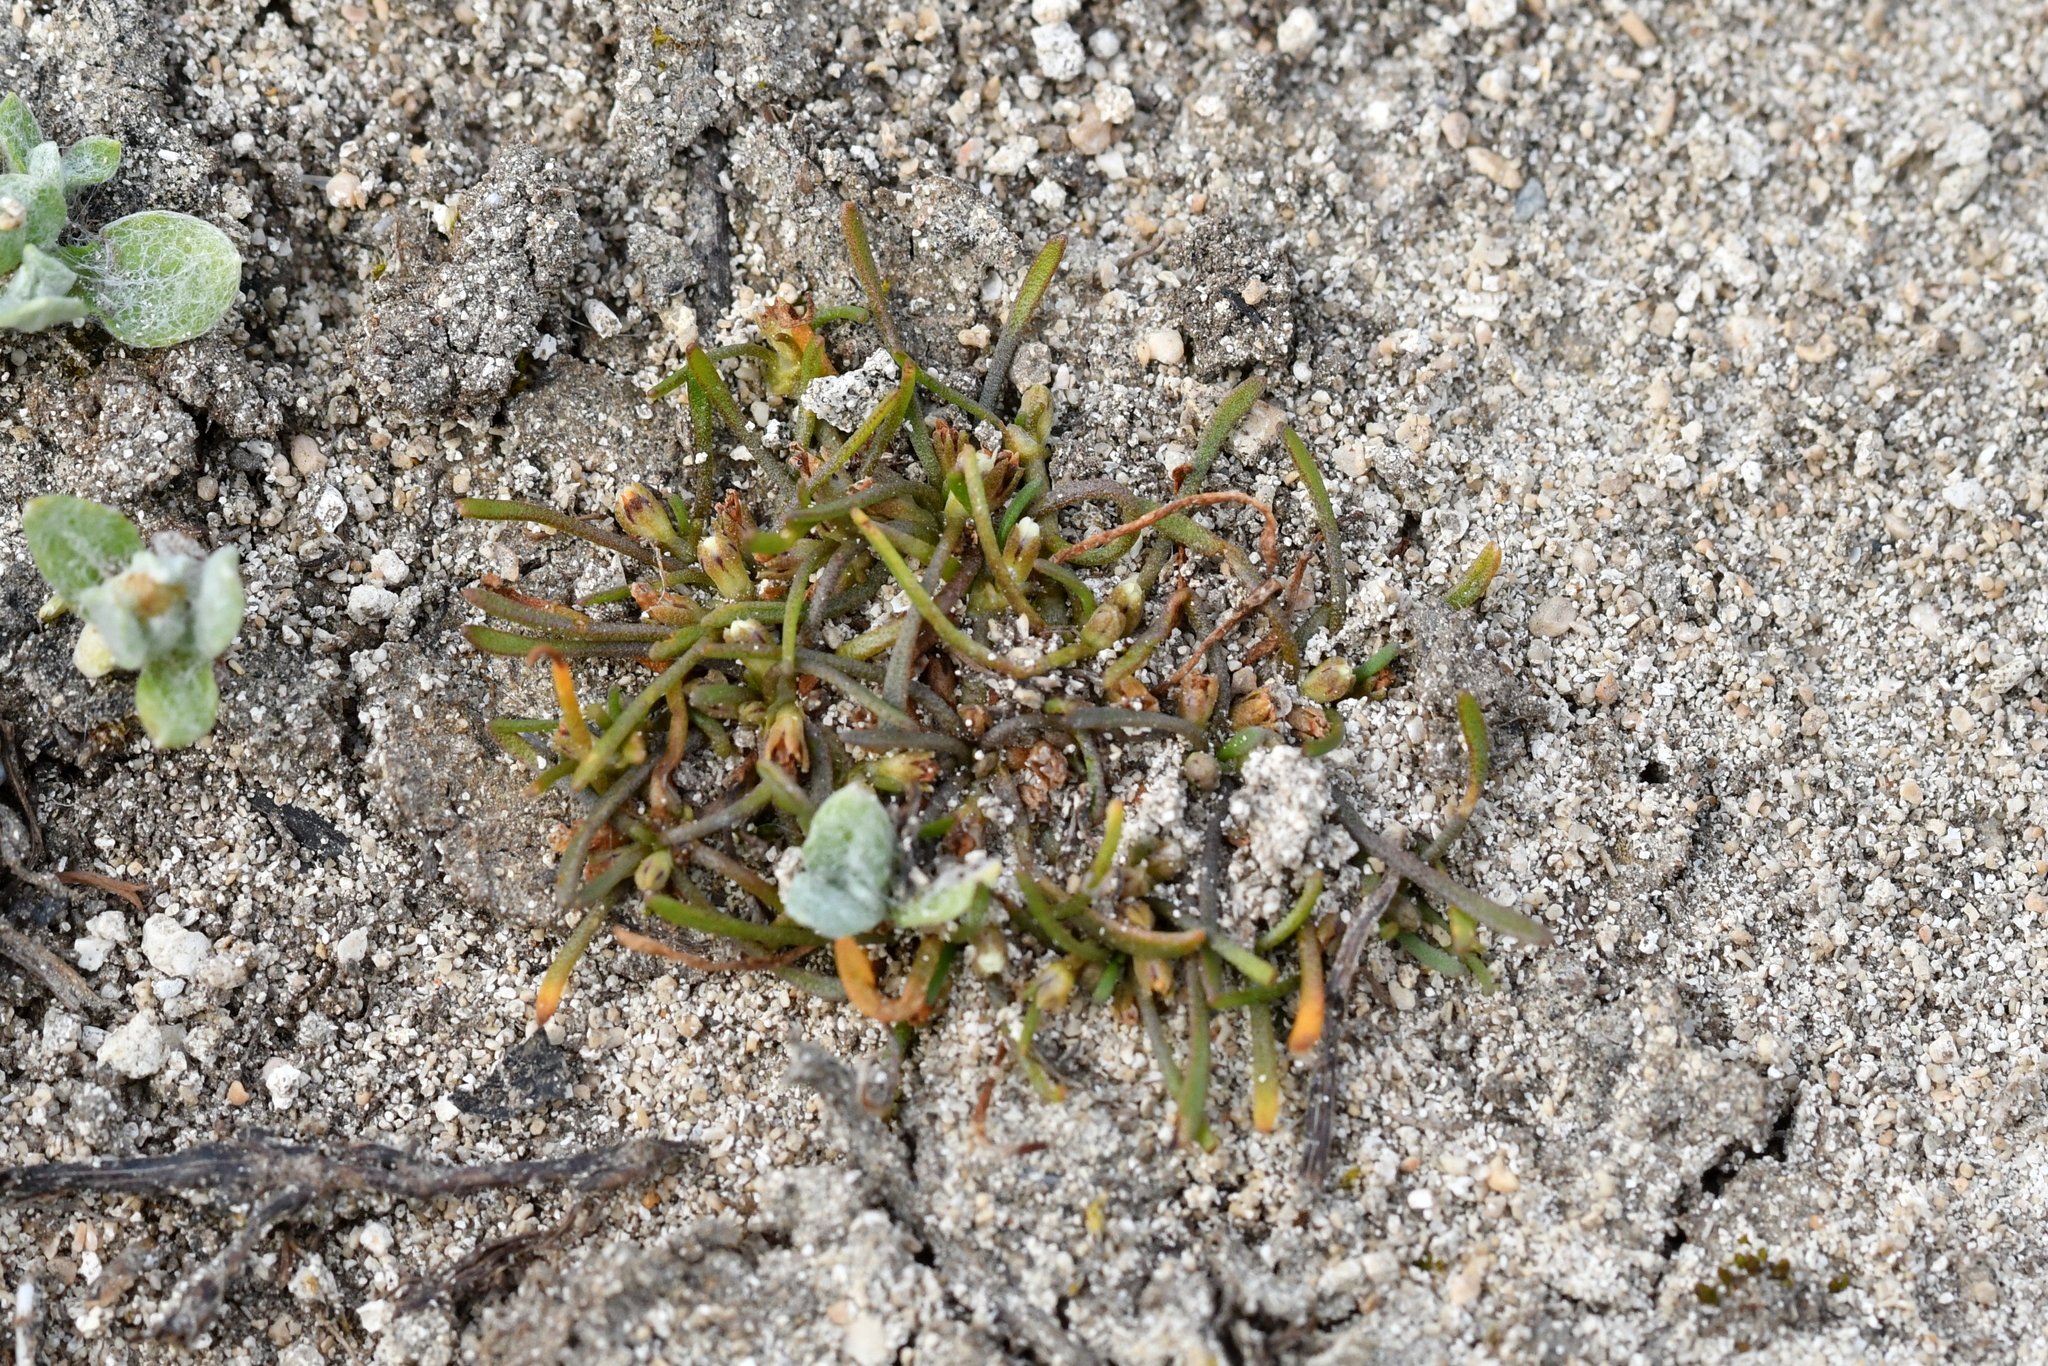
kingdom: Plantae
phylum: Tracheophyta
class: Magnoliopsida
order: Lamiales
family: Scrophulariaceae
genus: Limosella
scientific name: Limosella australis
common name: Welsh mudwort
